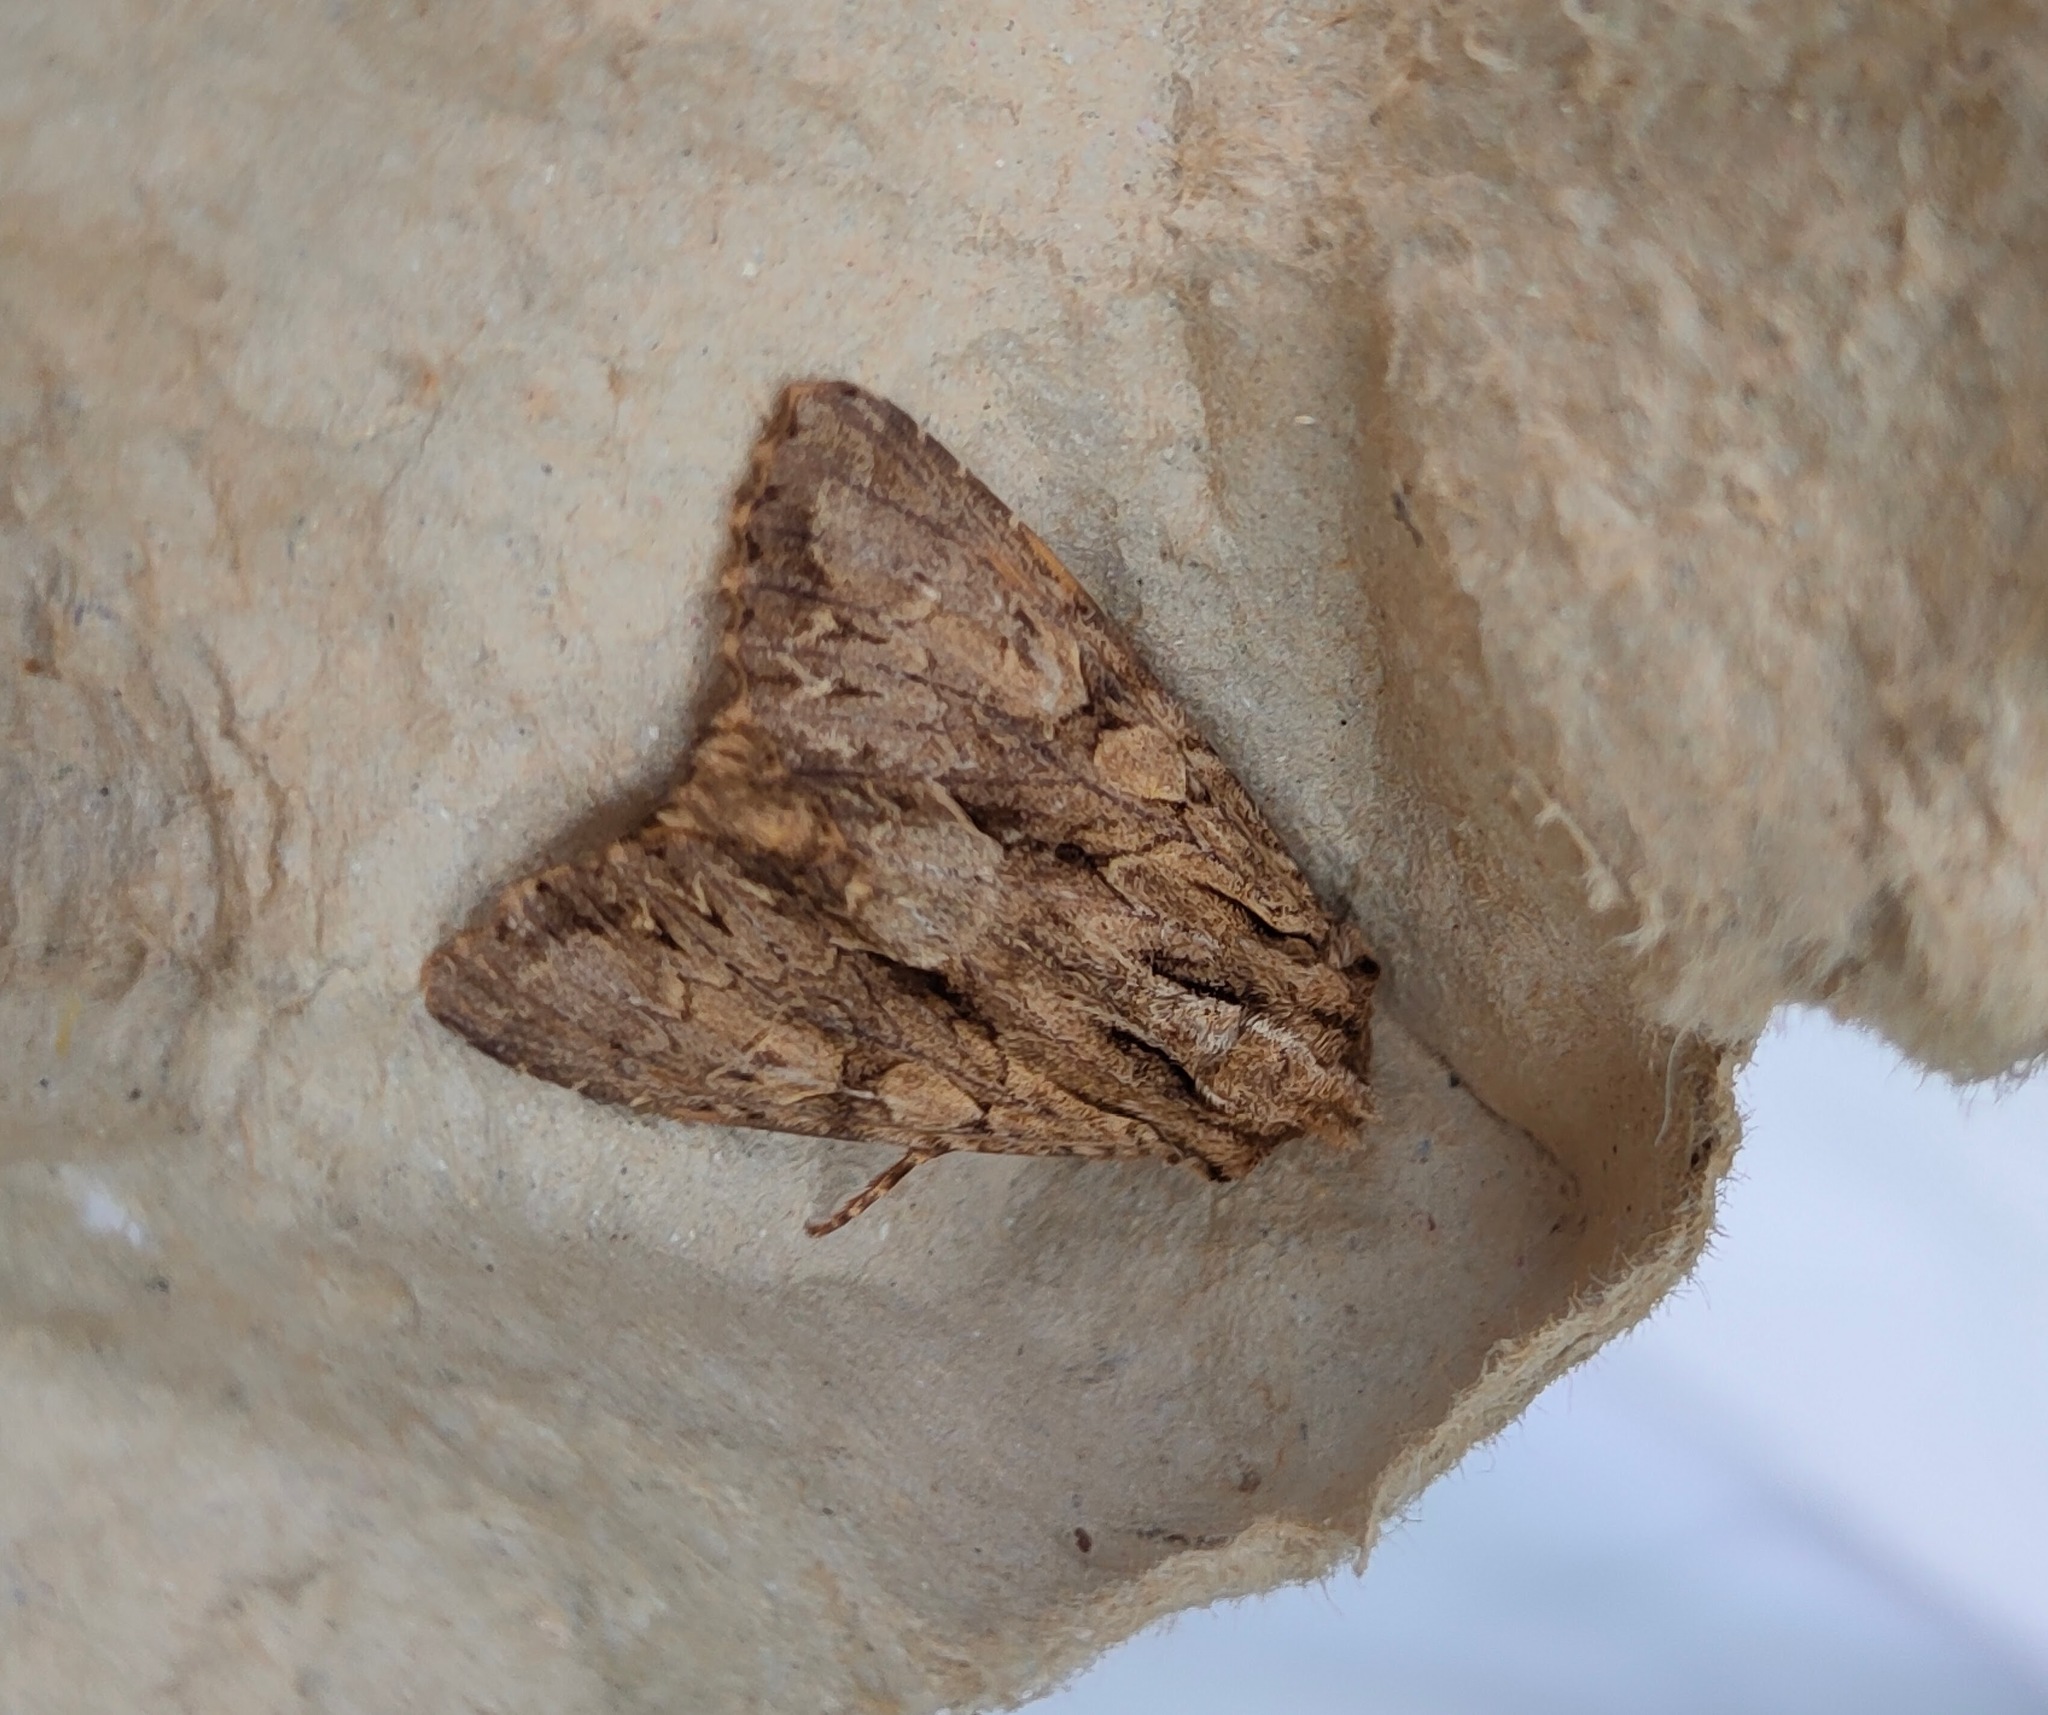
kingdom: Animalia
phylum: Arthropoda
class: Insecta
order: Lepidoptera
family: Noctuidae
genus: Apamea
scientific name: Apamea monoglypha
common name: Dark arches
